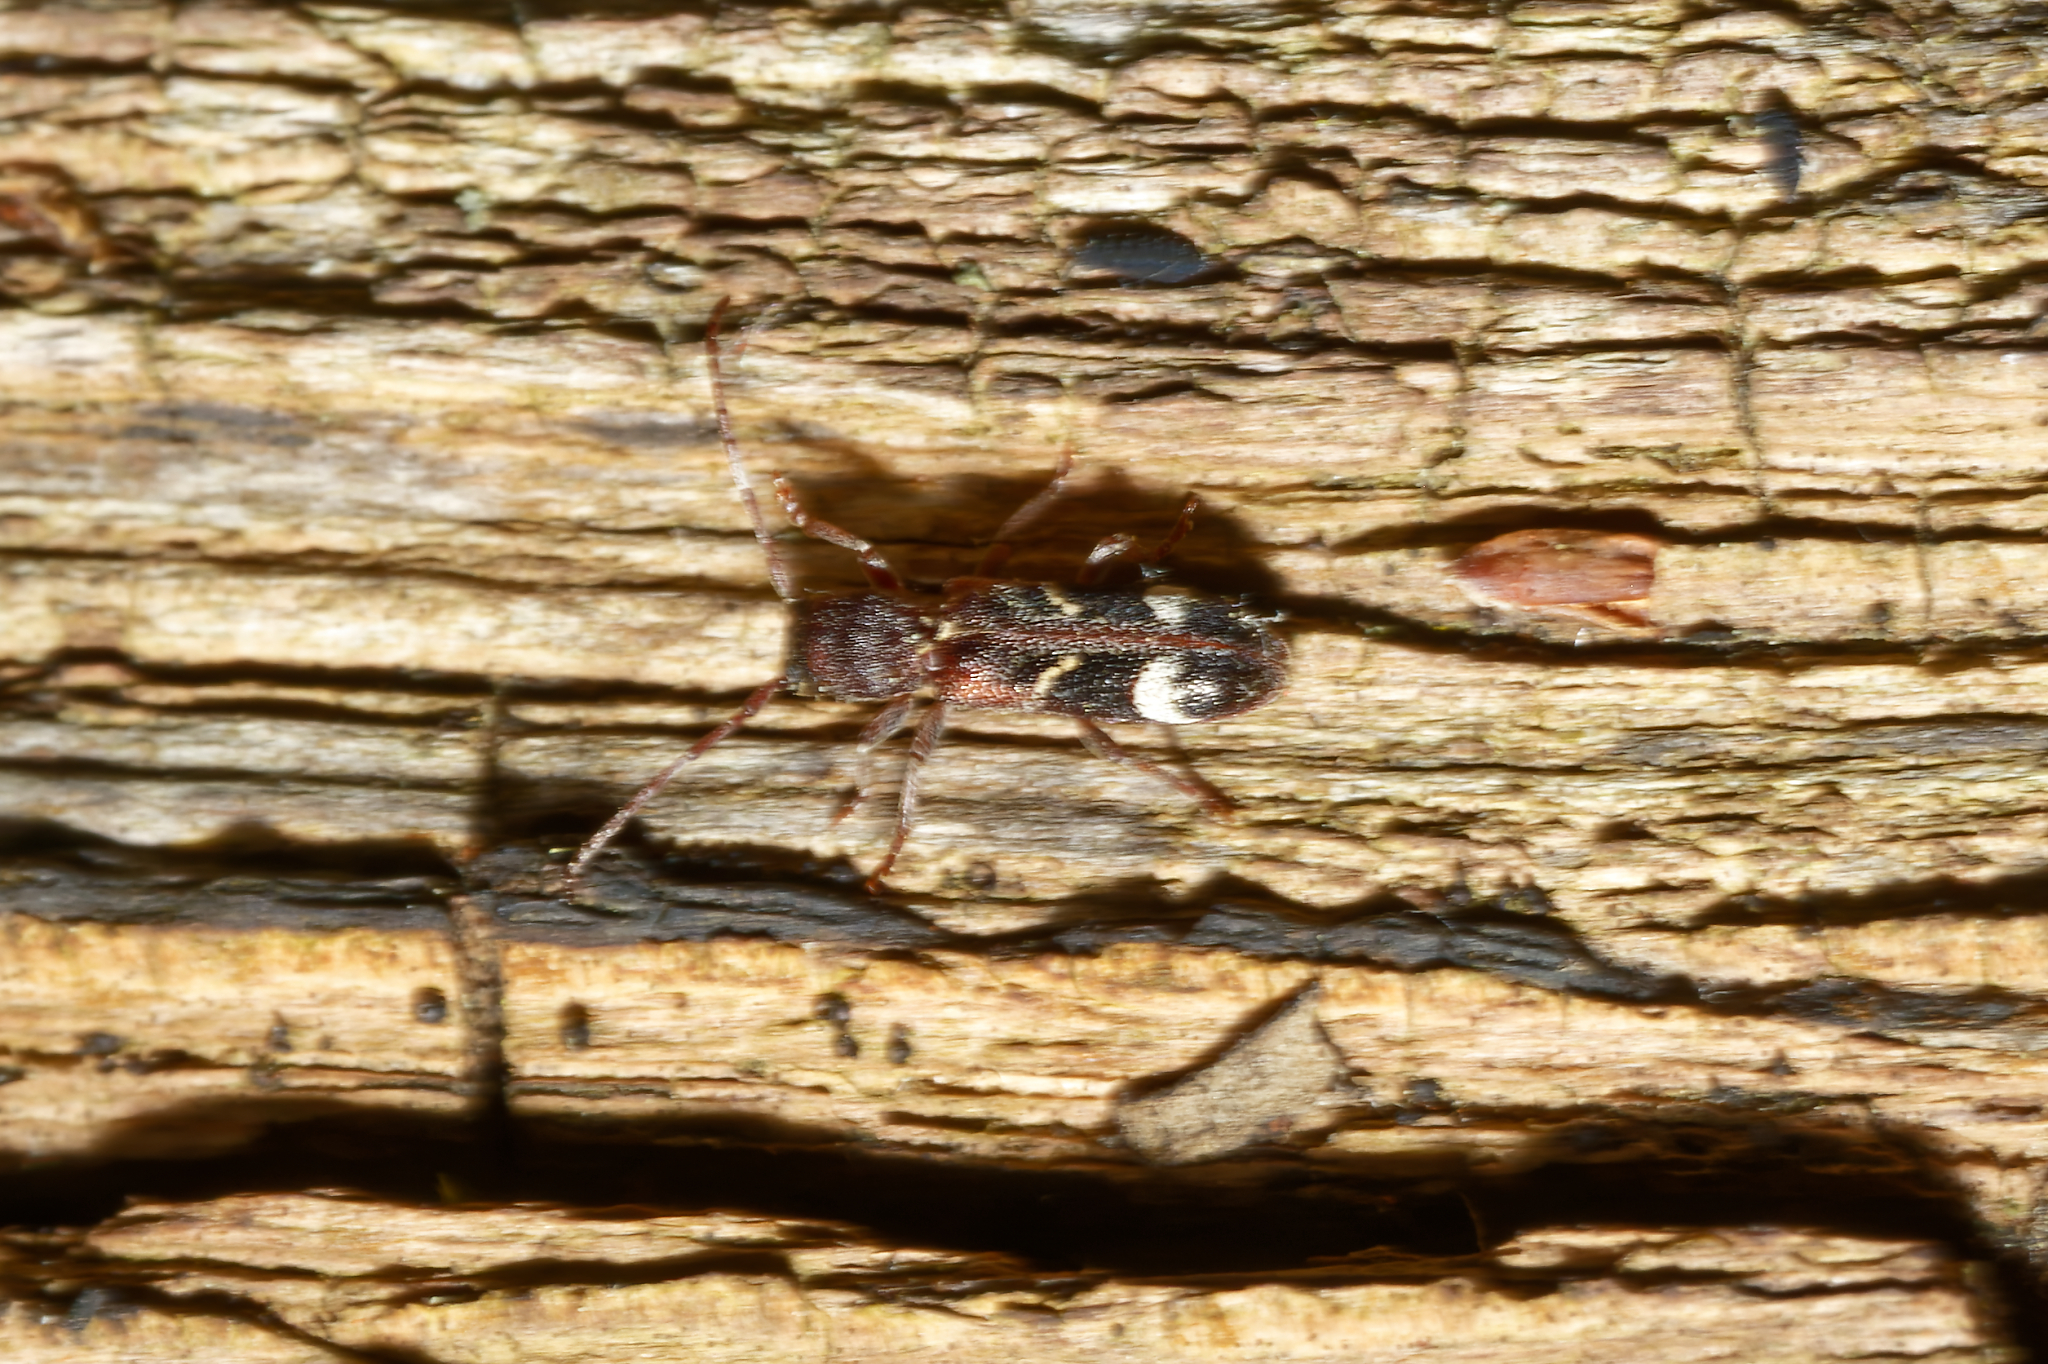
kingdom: Animalia
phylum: Arthropoda
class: Insecta
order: Coleoptera
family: Cerambycidae
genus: Psenocerus
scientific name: Psenocerus supernotatus
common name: Currant-tip borer
